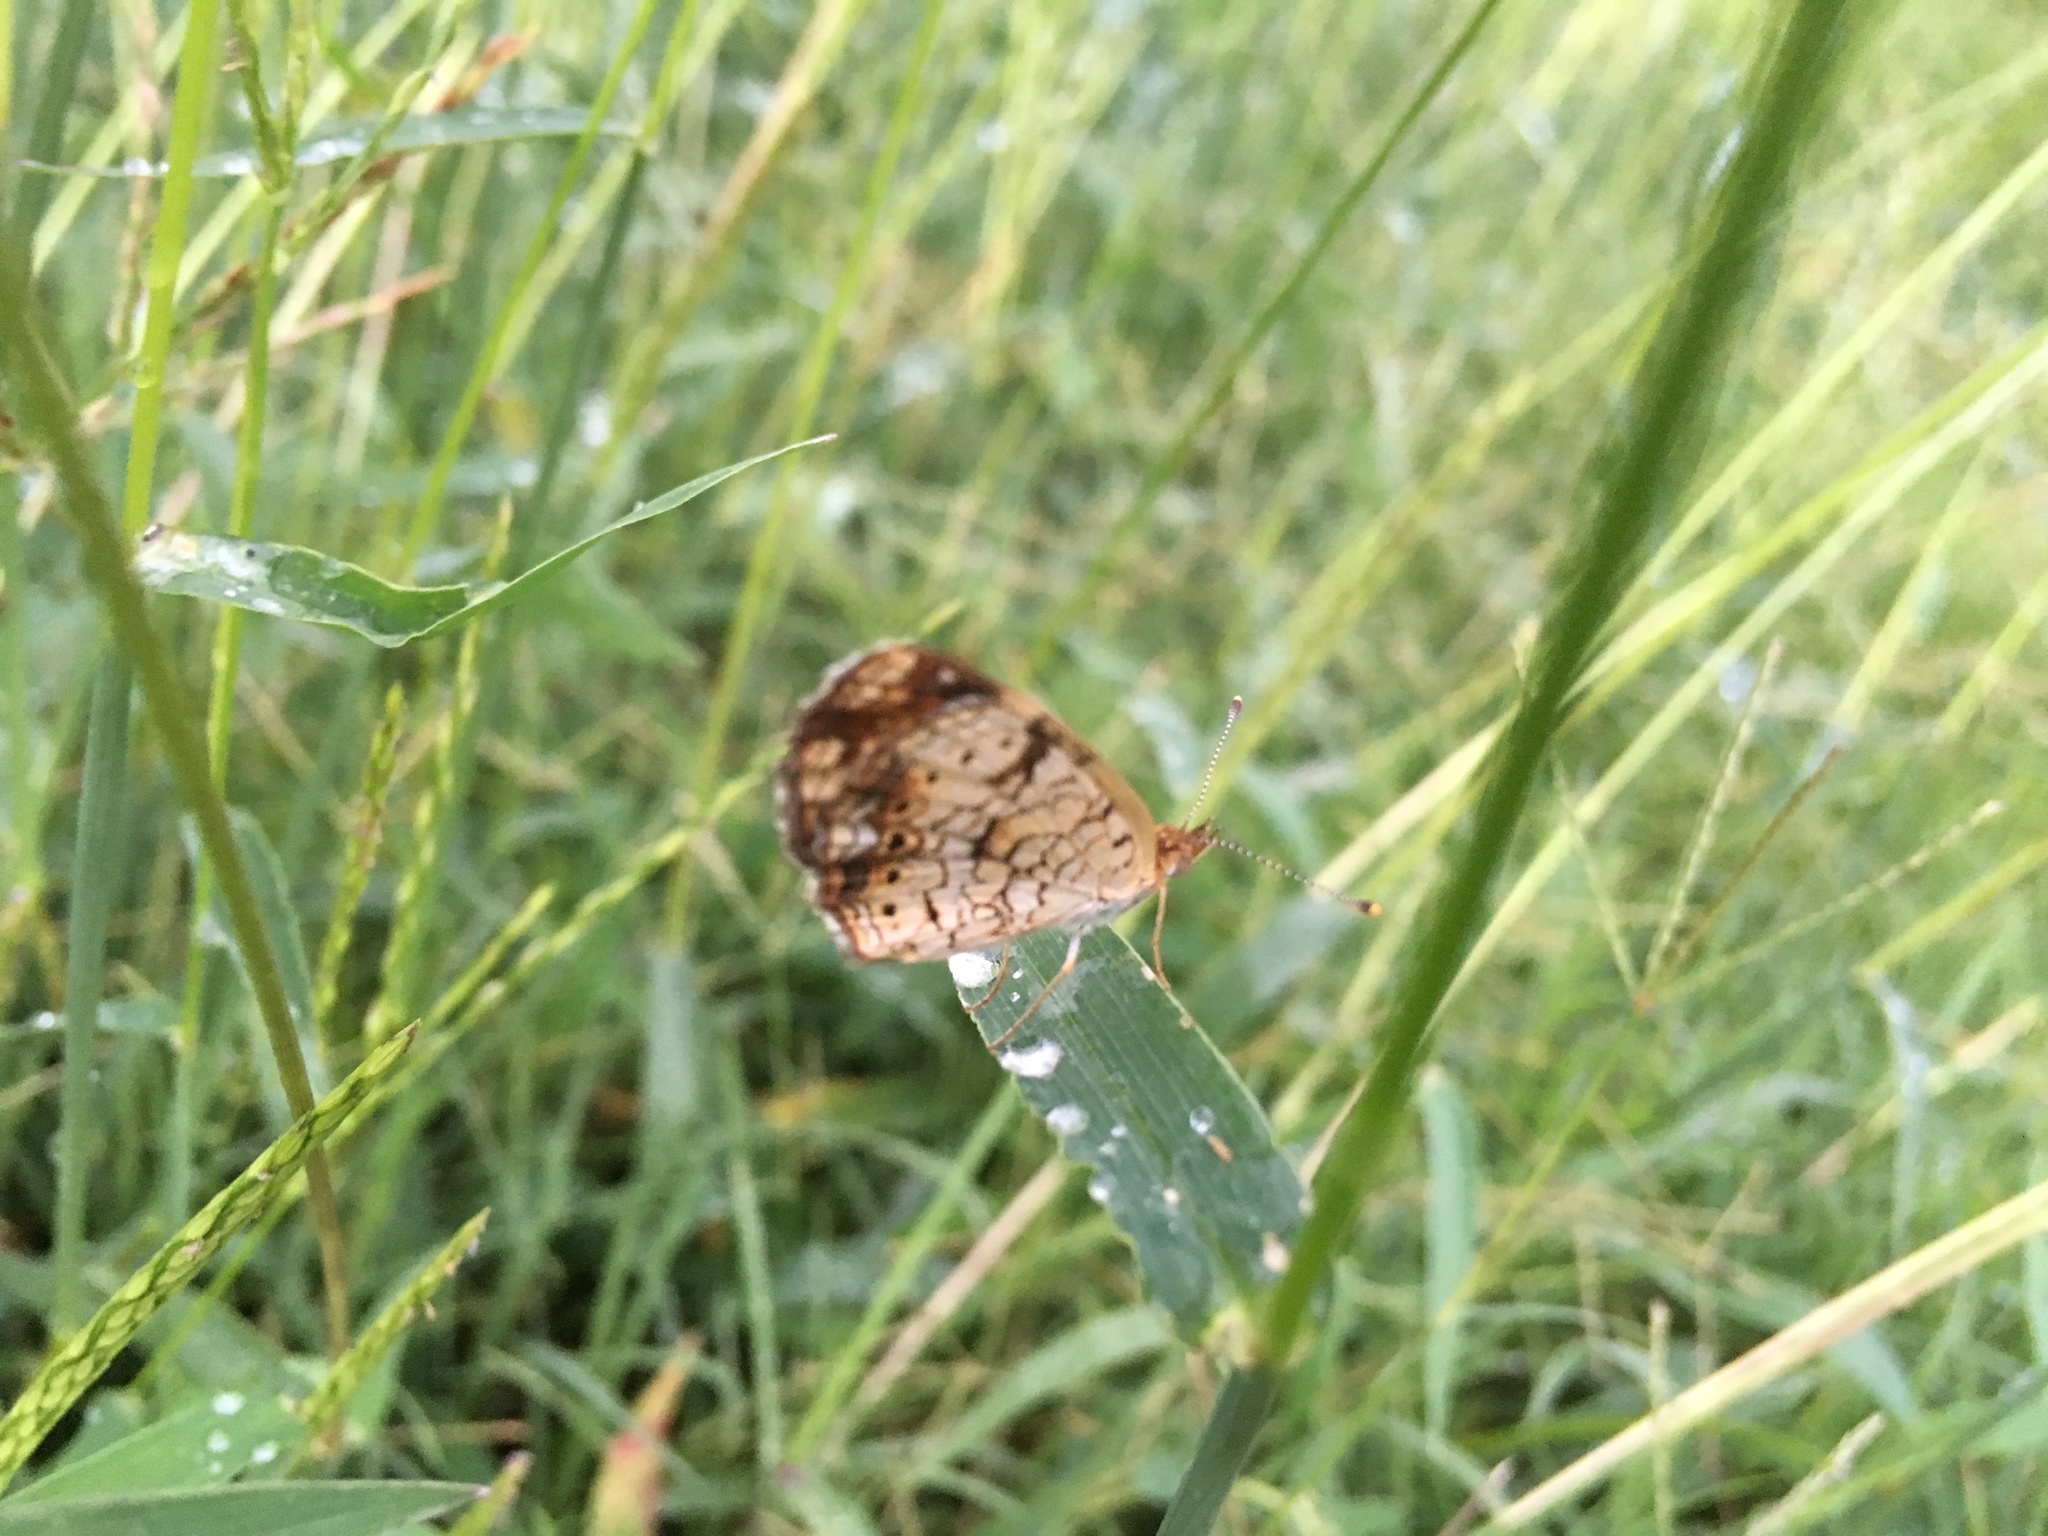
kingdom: Animalia
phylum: Arthropoda
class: Insecta
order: Lepidoptera
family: Nymphalidae
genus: Phyciodes
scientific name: Phyciodes tharos
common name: Pearl crescent
